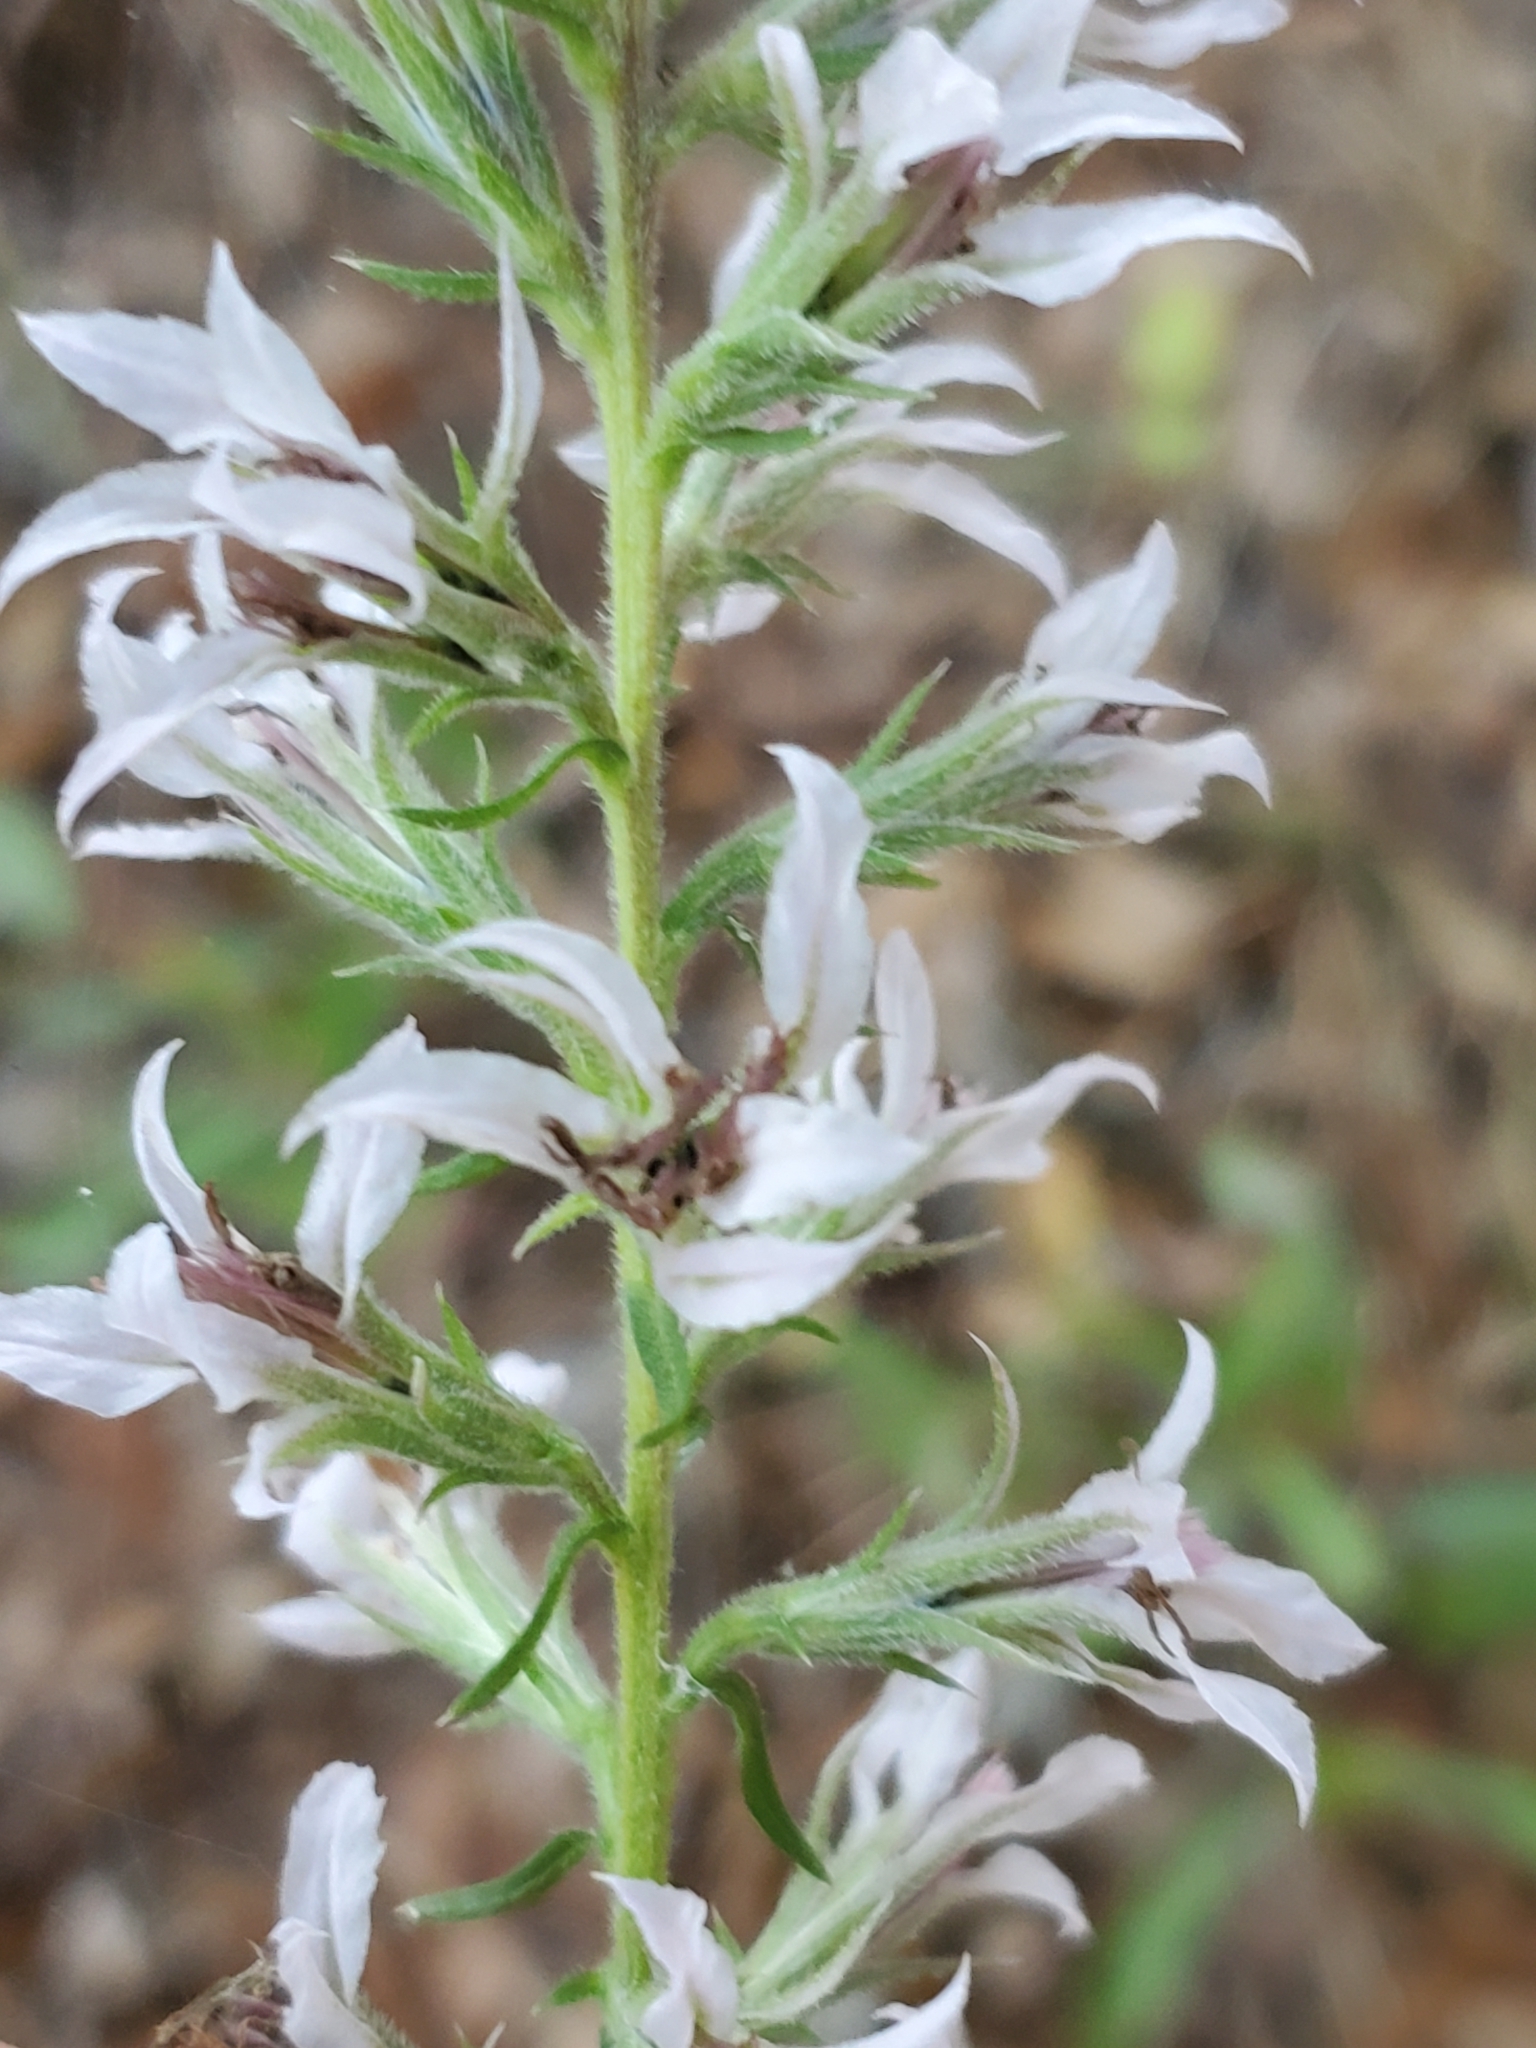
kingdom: Plantae
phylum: Tracheophyta
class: Magnoliopsida
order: Asterales
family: Asteraceae
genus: Liatris
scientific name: Liatris elegans
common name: Pinkscale gayfeather
